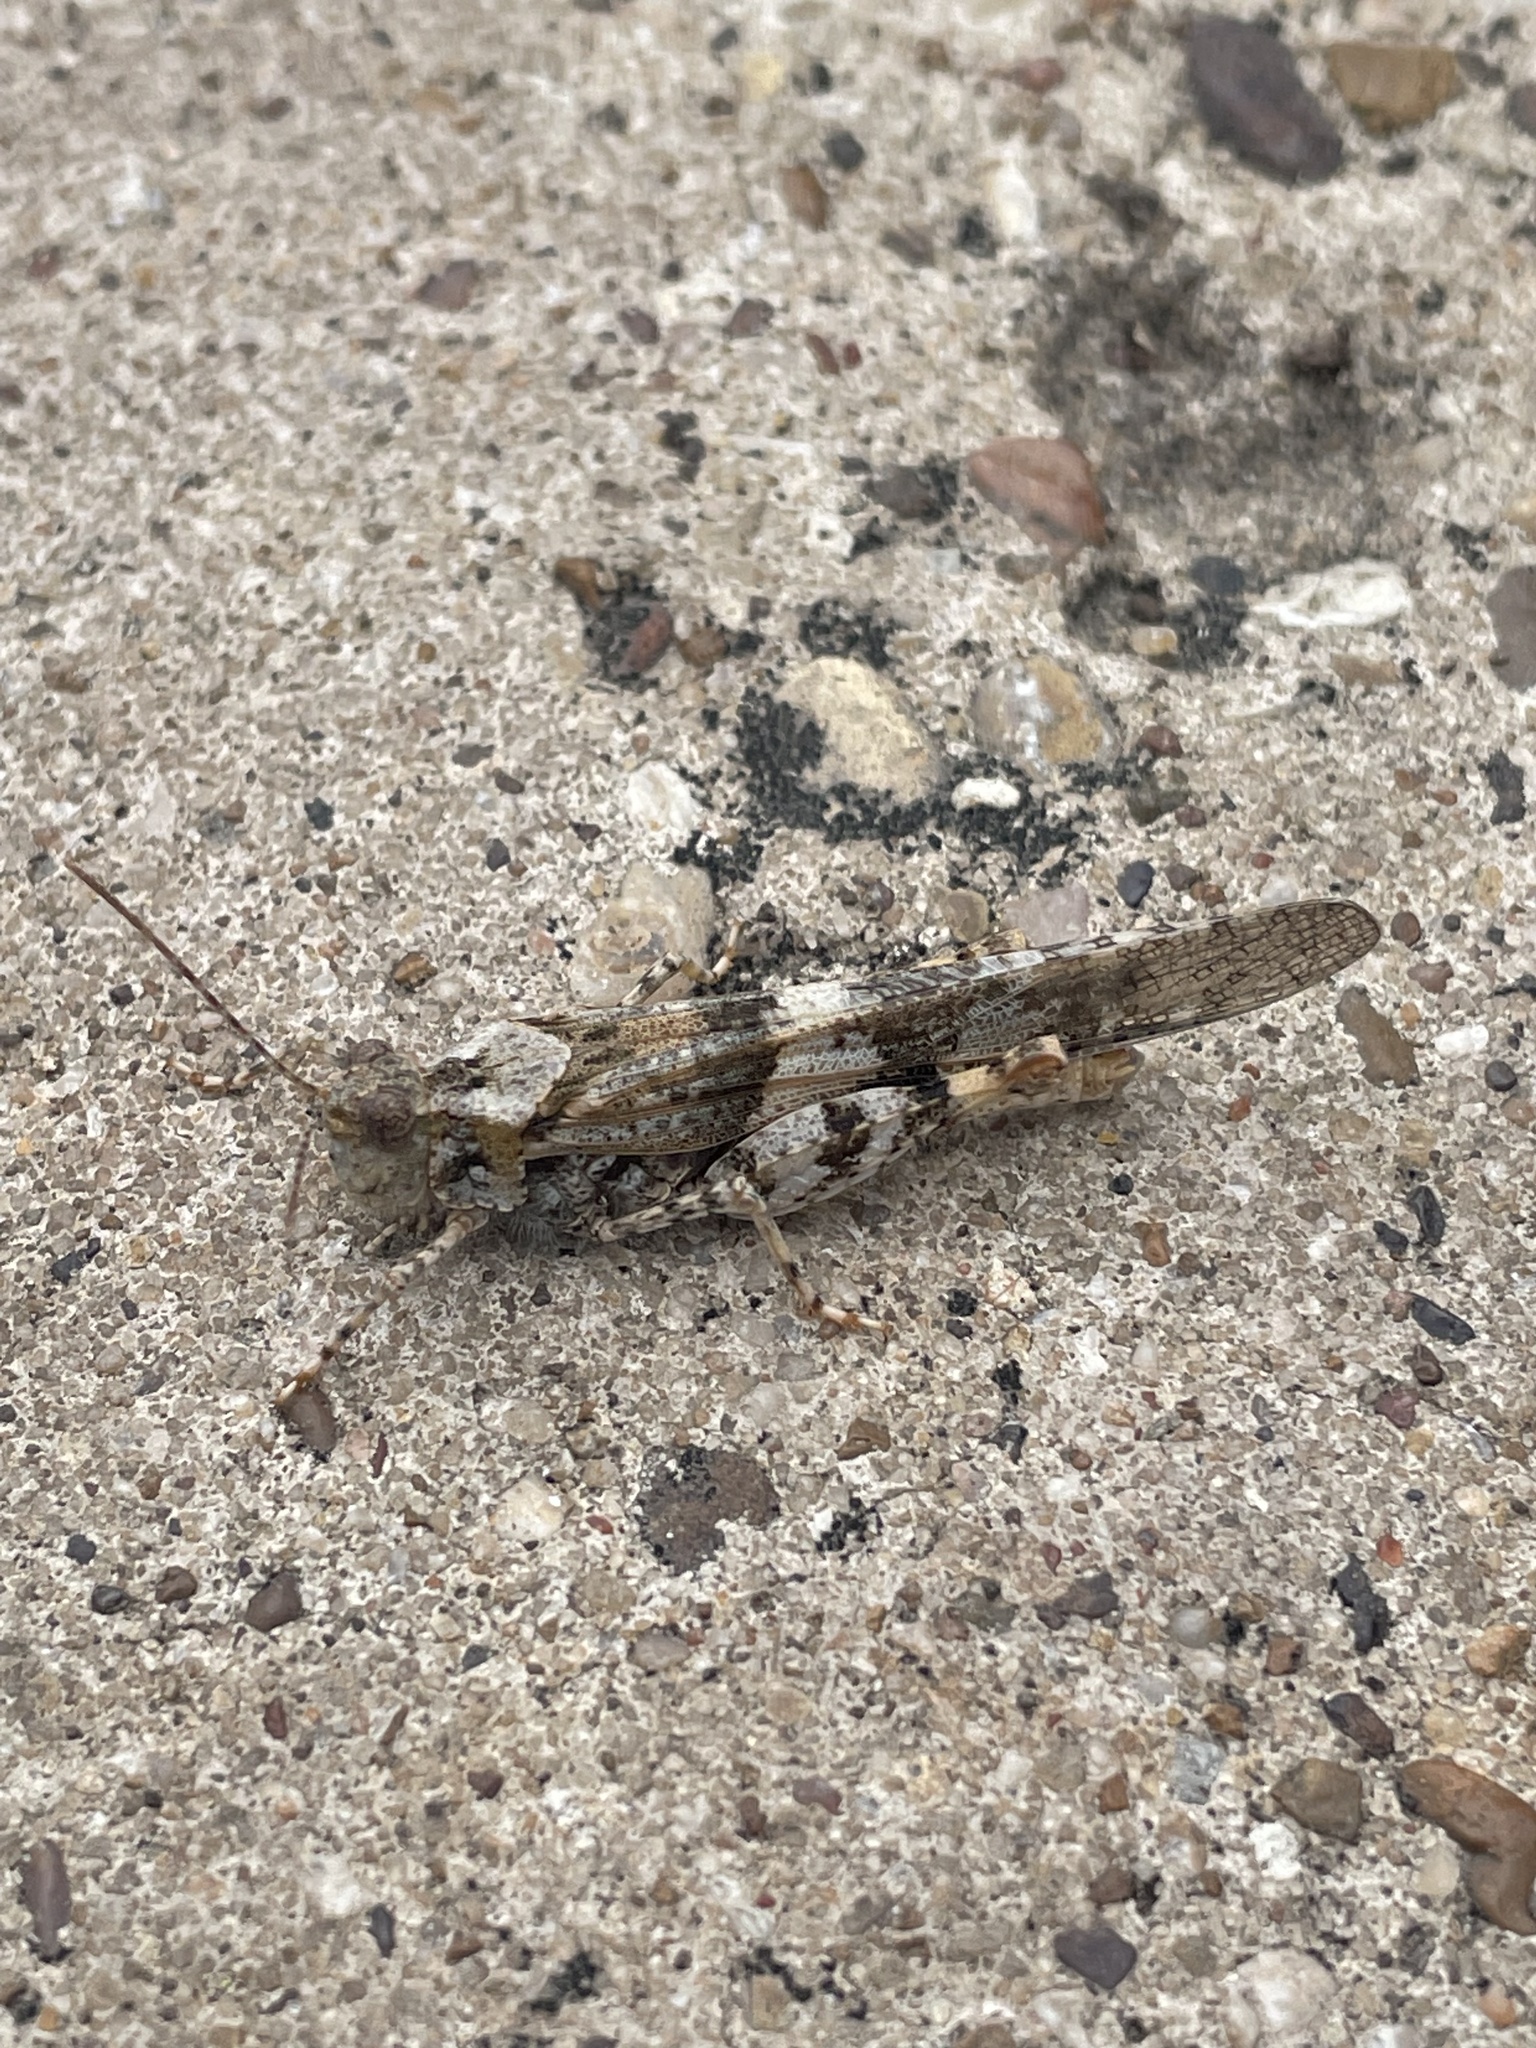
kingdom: Animalia
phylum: Arthropoda
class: Insecta
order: Orthoptera
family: Acrididae
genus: Trimerotropis
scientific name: Trimerotropis pallidipennis
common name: Pallid-winged grasshopper
